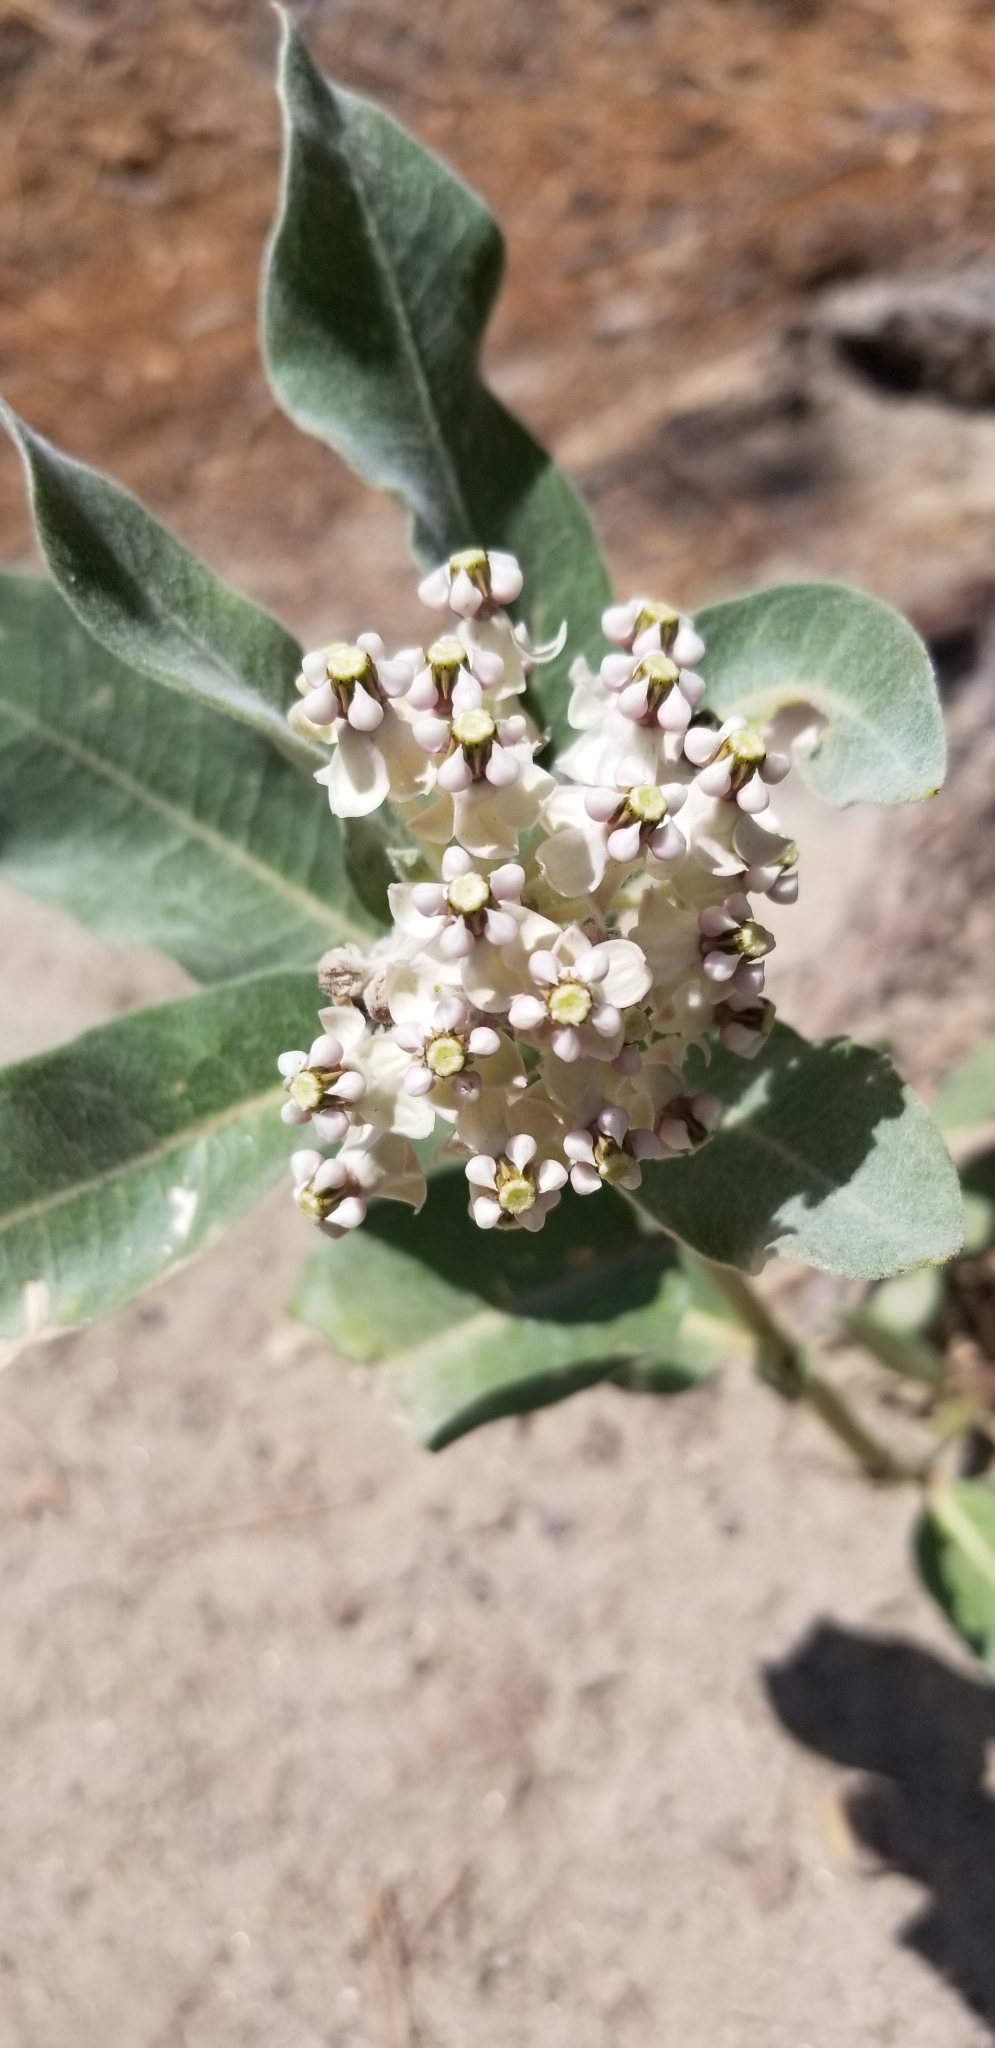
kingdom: Plantae
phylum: Tracheophyta
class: Magnoliopsida
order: Gentianales
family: Apocynaceae
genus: Asclepias
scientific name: Asclepias eriocarpa
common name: Indian milkweed
